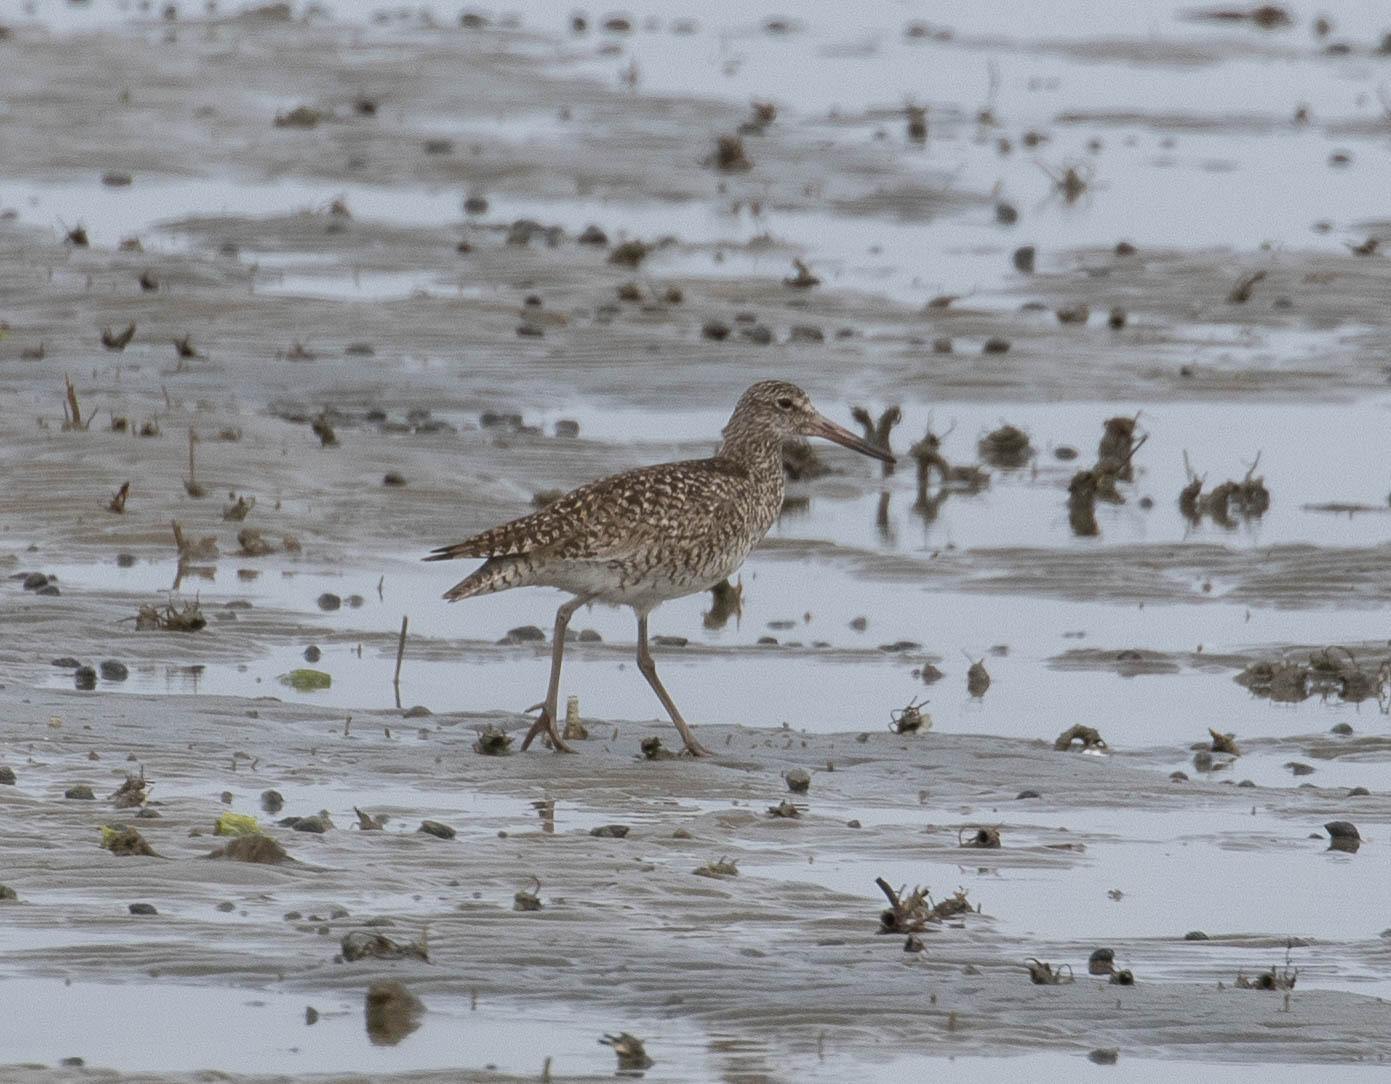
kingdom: Animalia
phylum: Chordata
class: Aves
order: Charadriiformes
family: Scolopacidae
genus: Tringa
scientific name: Tringa semipalmata
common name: Willet
